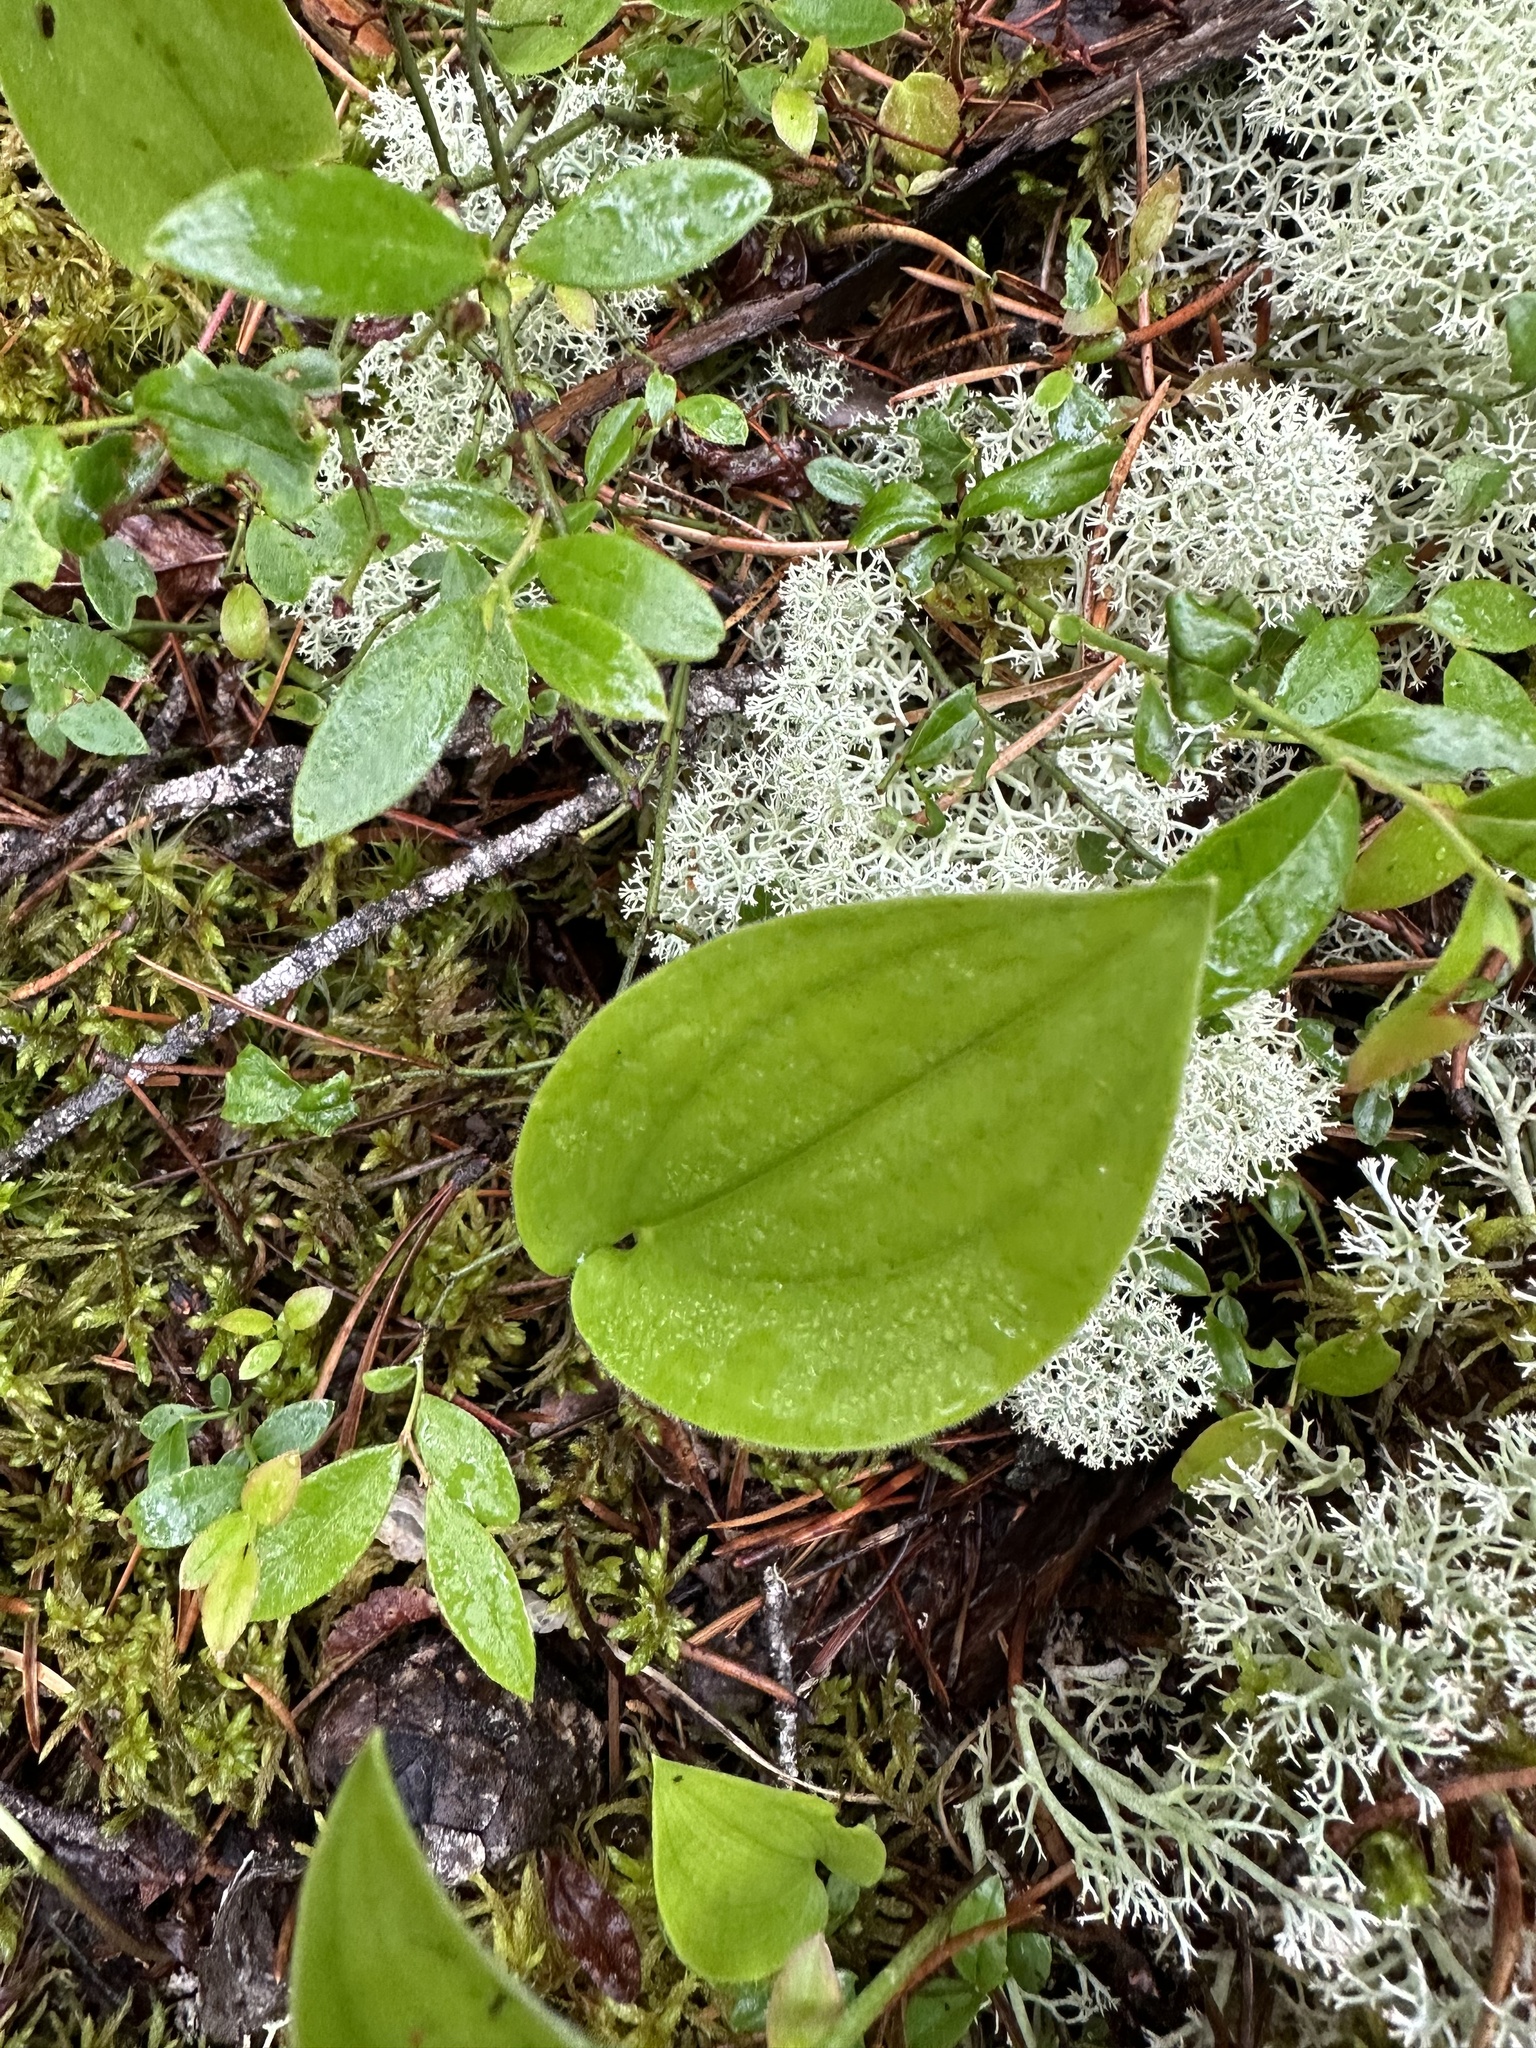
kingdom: Plantae
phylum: Tracheophyta
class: Liliopsida
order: Asparagales
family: Asparagaceae
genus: Maianthemum
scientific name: Maianthemum canadense
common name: False lily-of-the-valley
